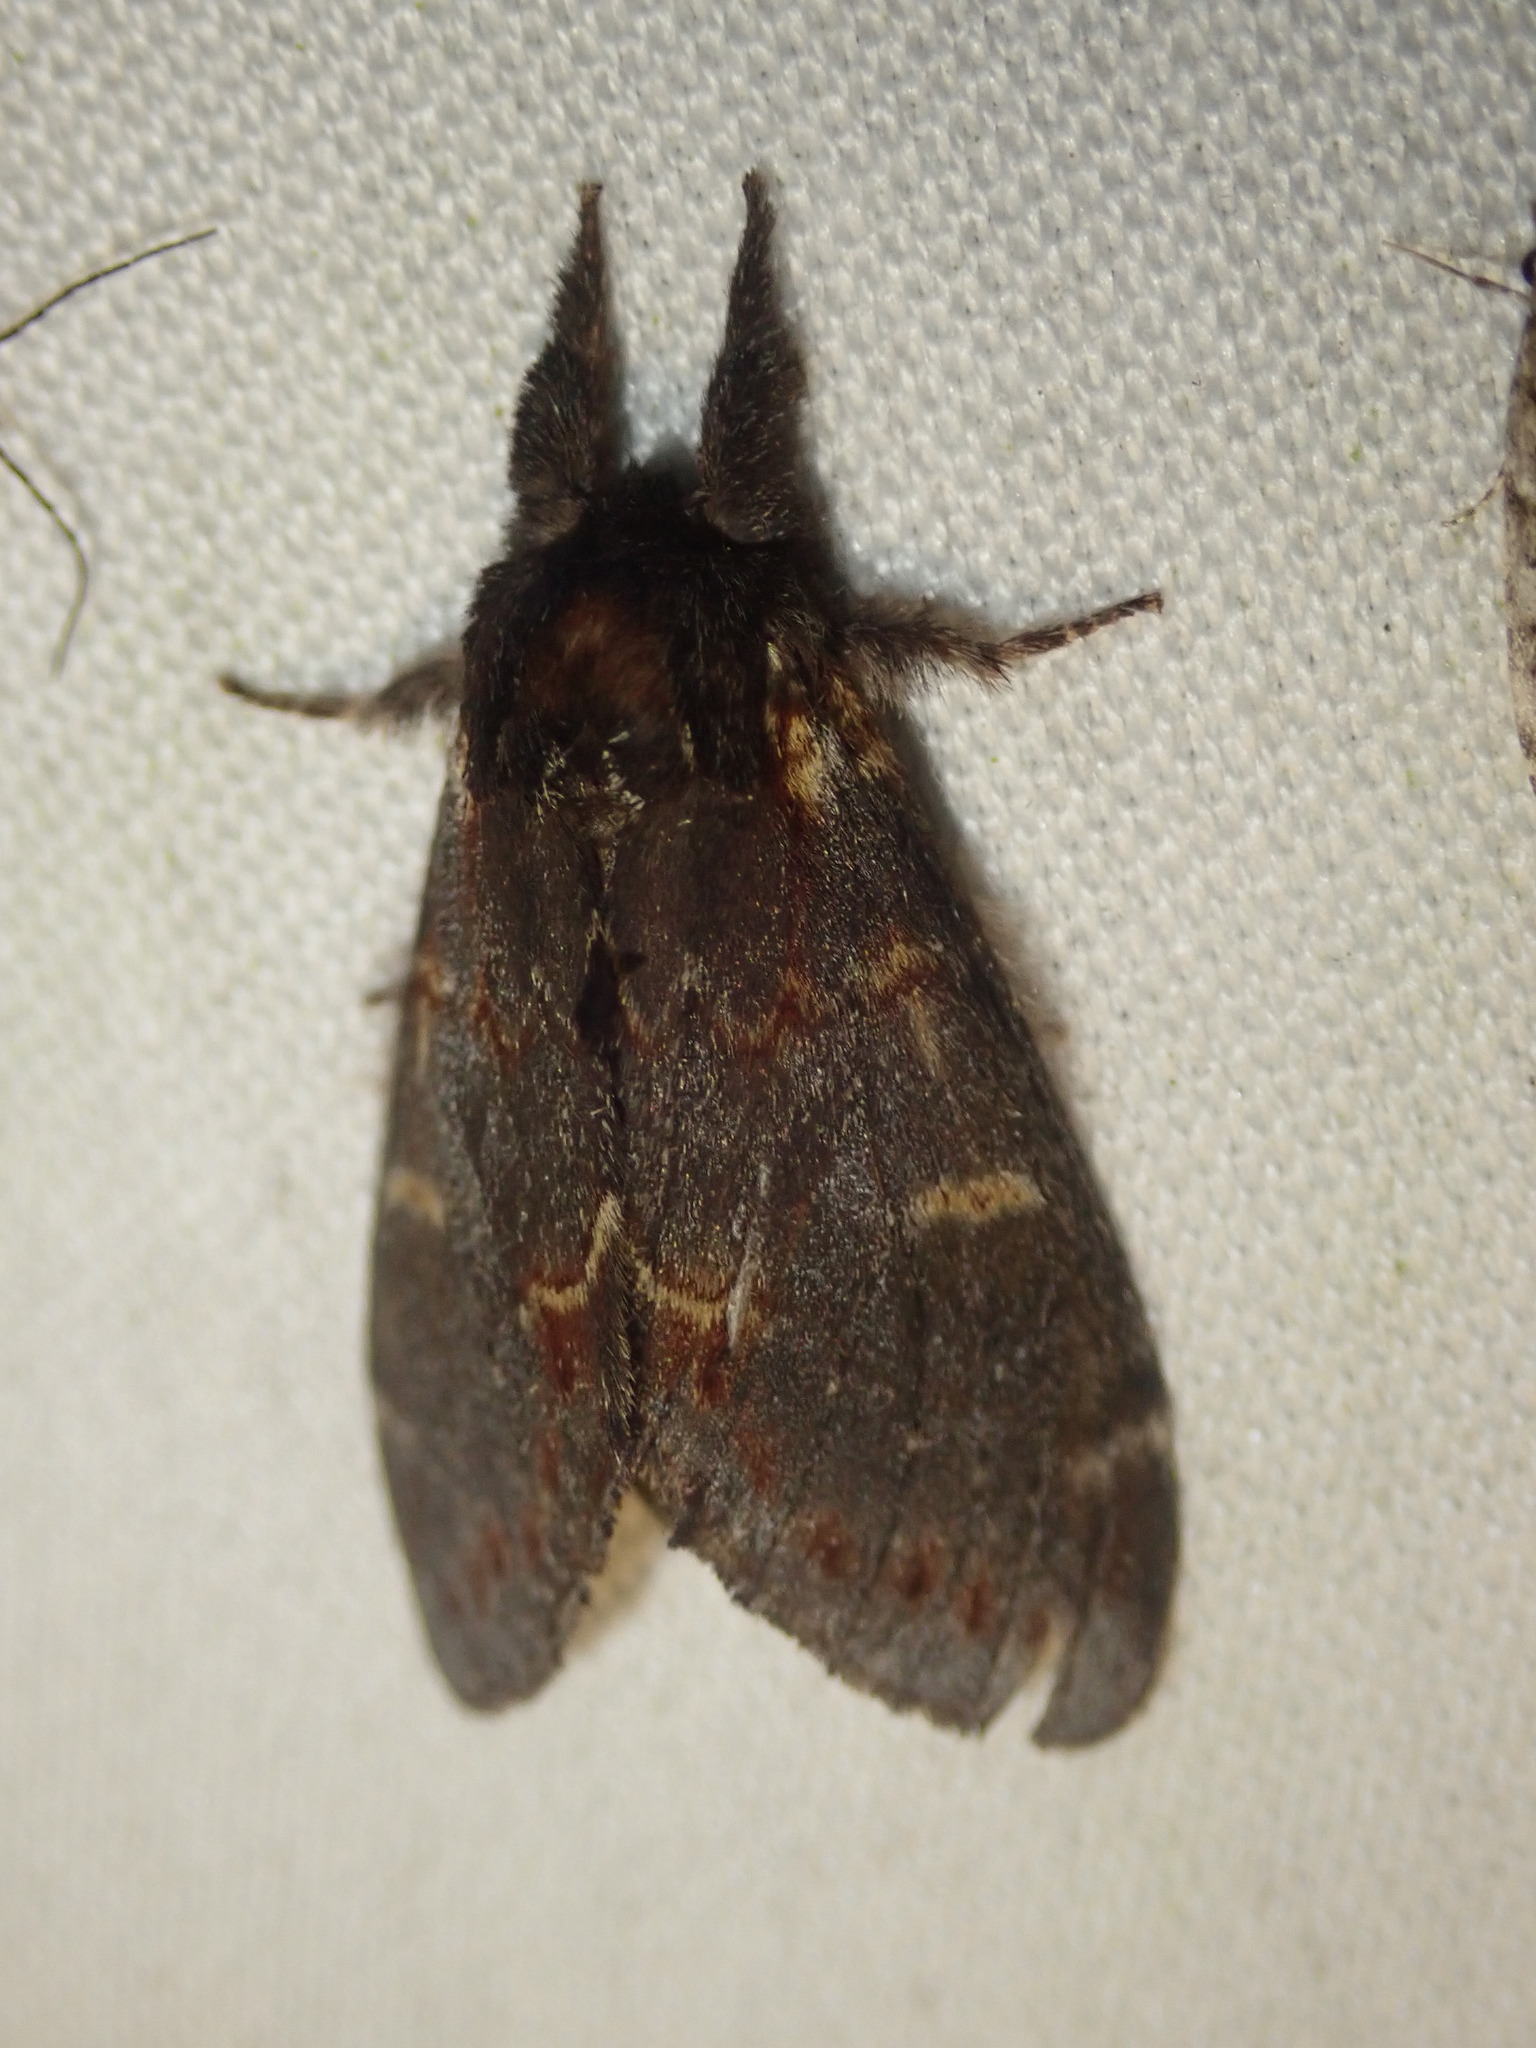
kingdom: Animalia
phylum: Arthropoda
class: Insecta
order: Lepidoptera
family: Notodontidae
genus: Notodonta
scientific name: Notodonta dromedarius
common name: Iron prominent
